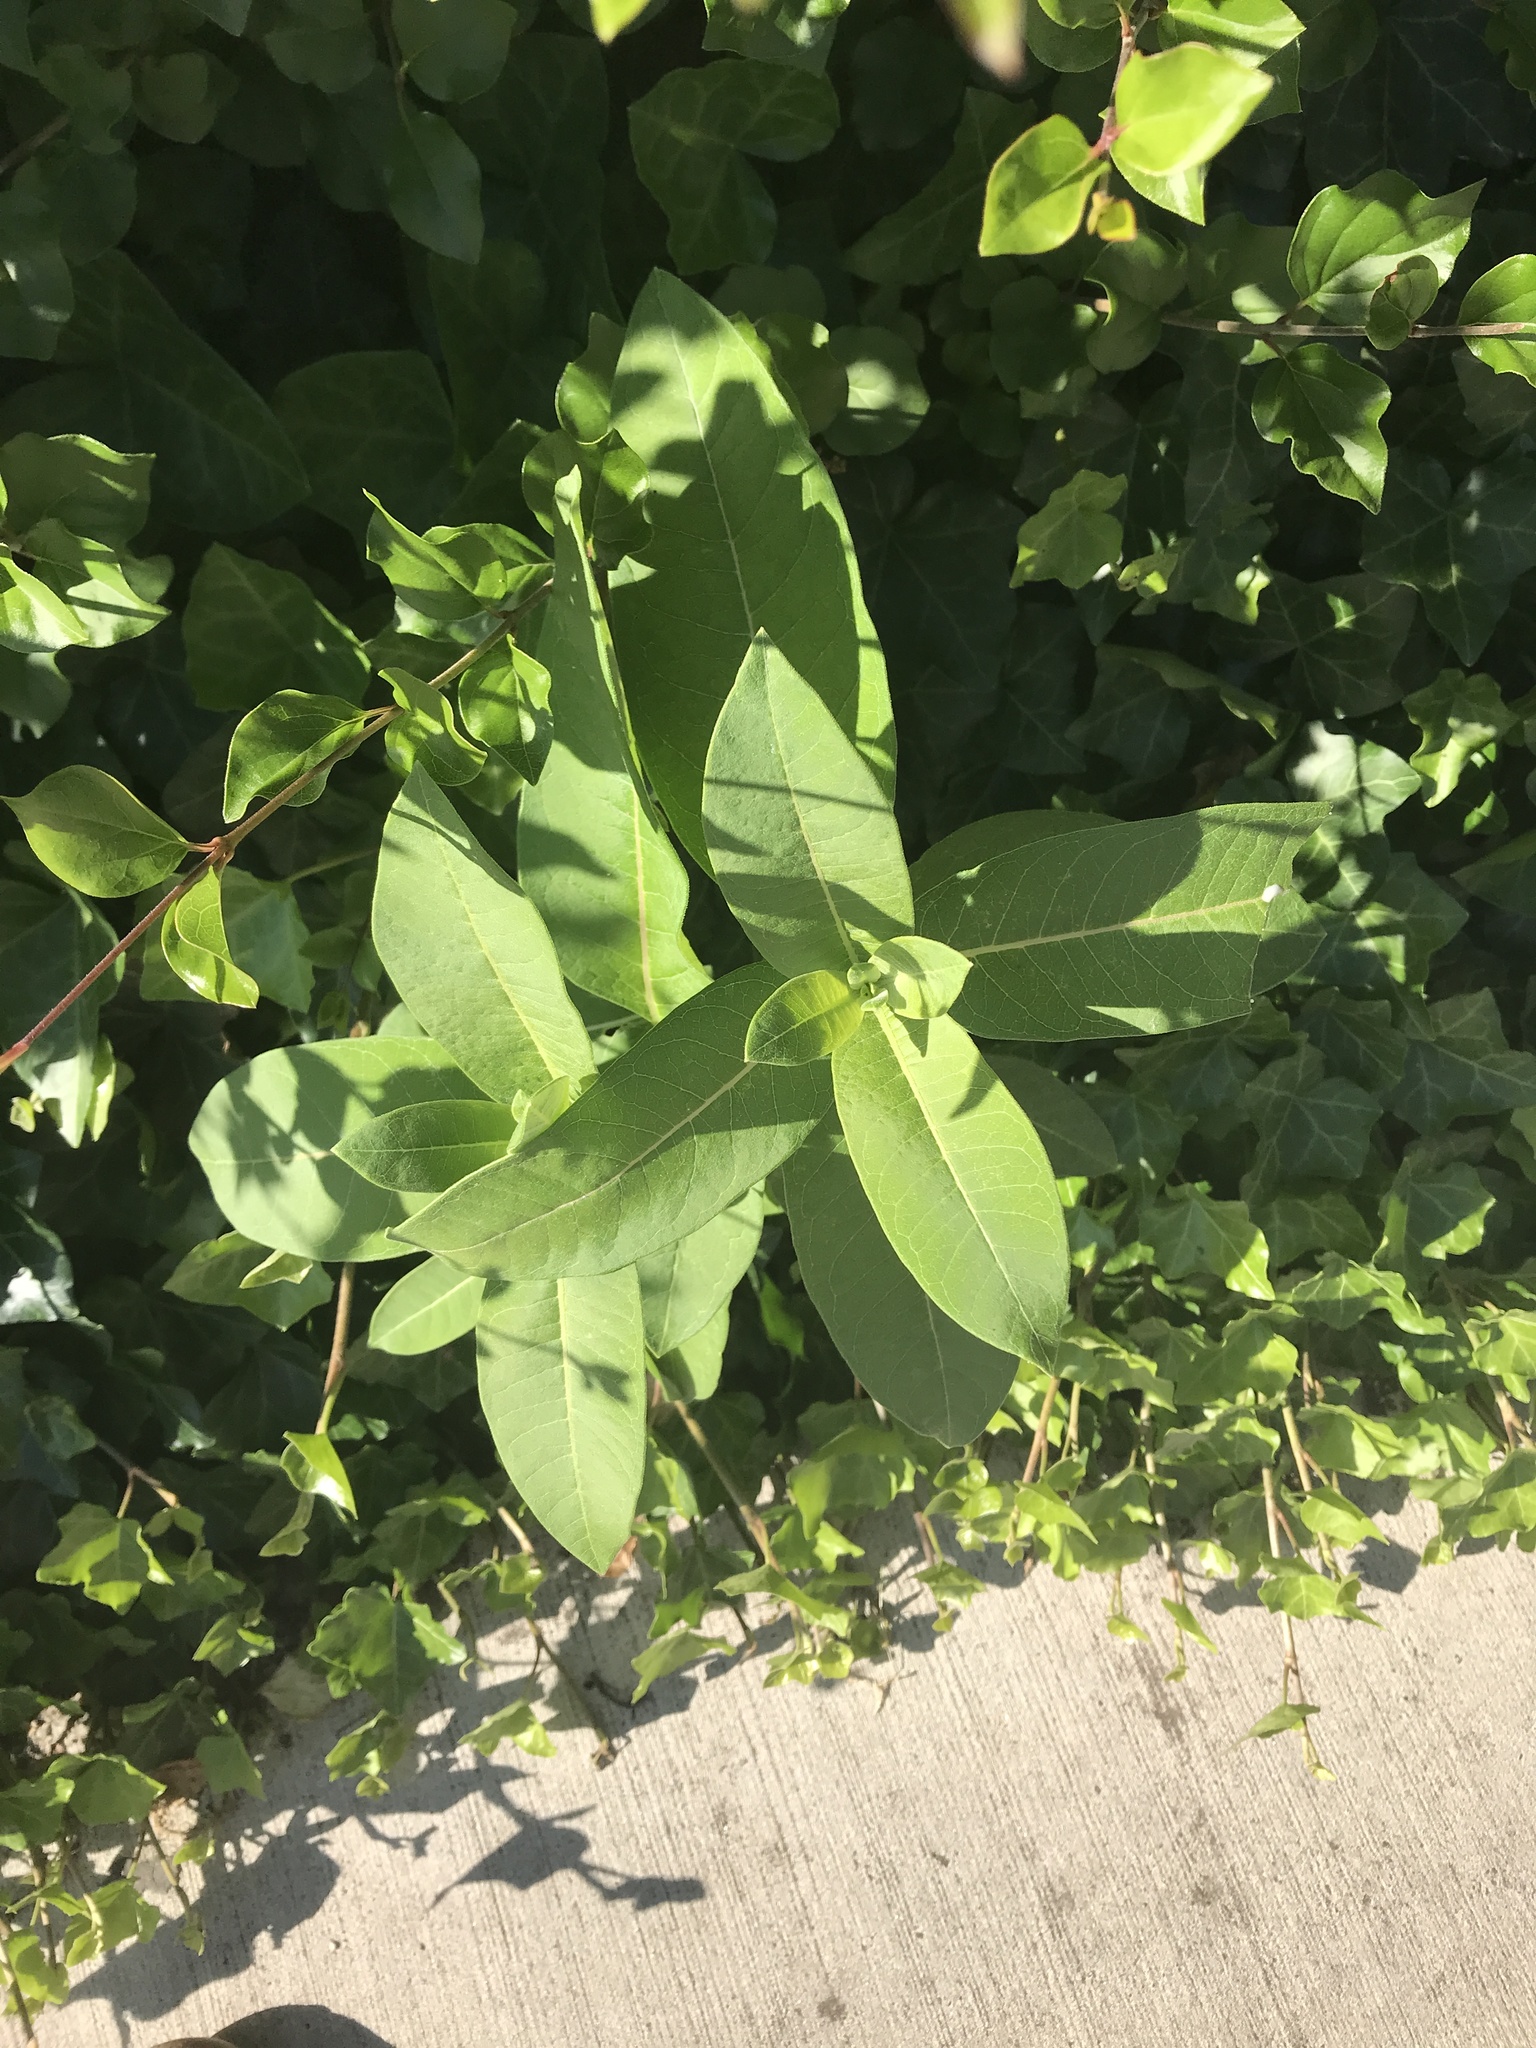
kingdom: Plantae
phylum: Tracheophyta
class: Magnoliopsida
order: Gentianales
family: Apocynaceae
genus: Asclepias
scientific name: Asclepias syriaca
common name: Common milkweed
